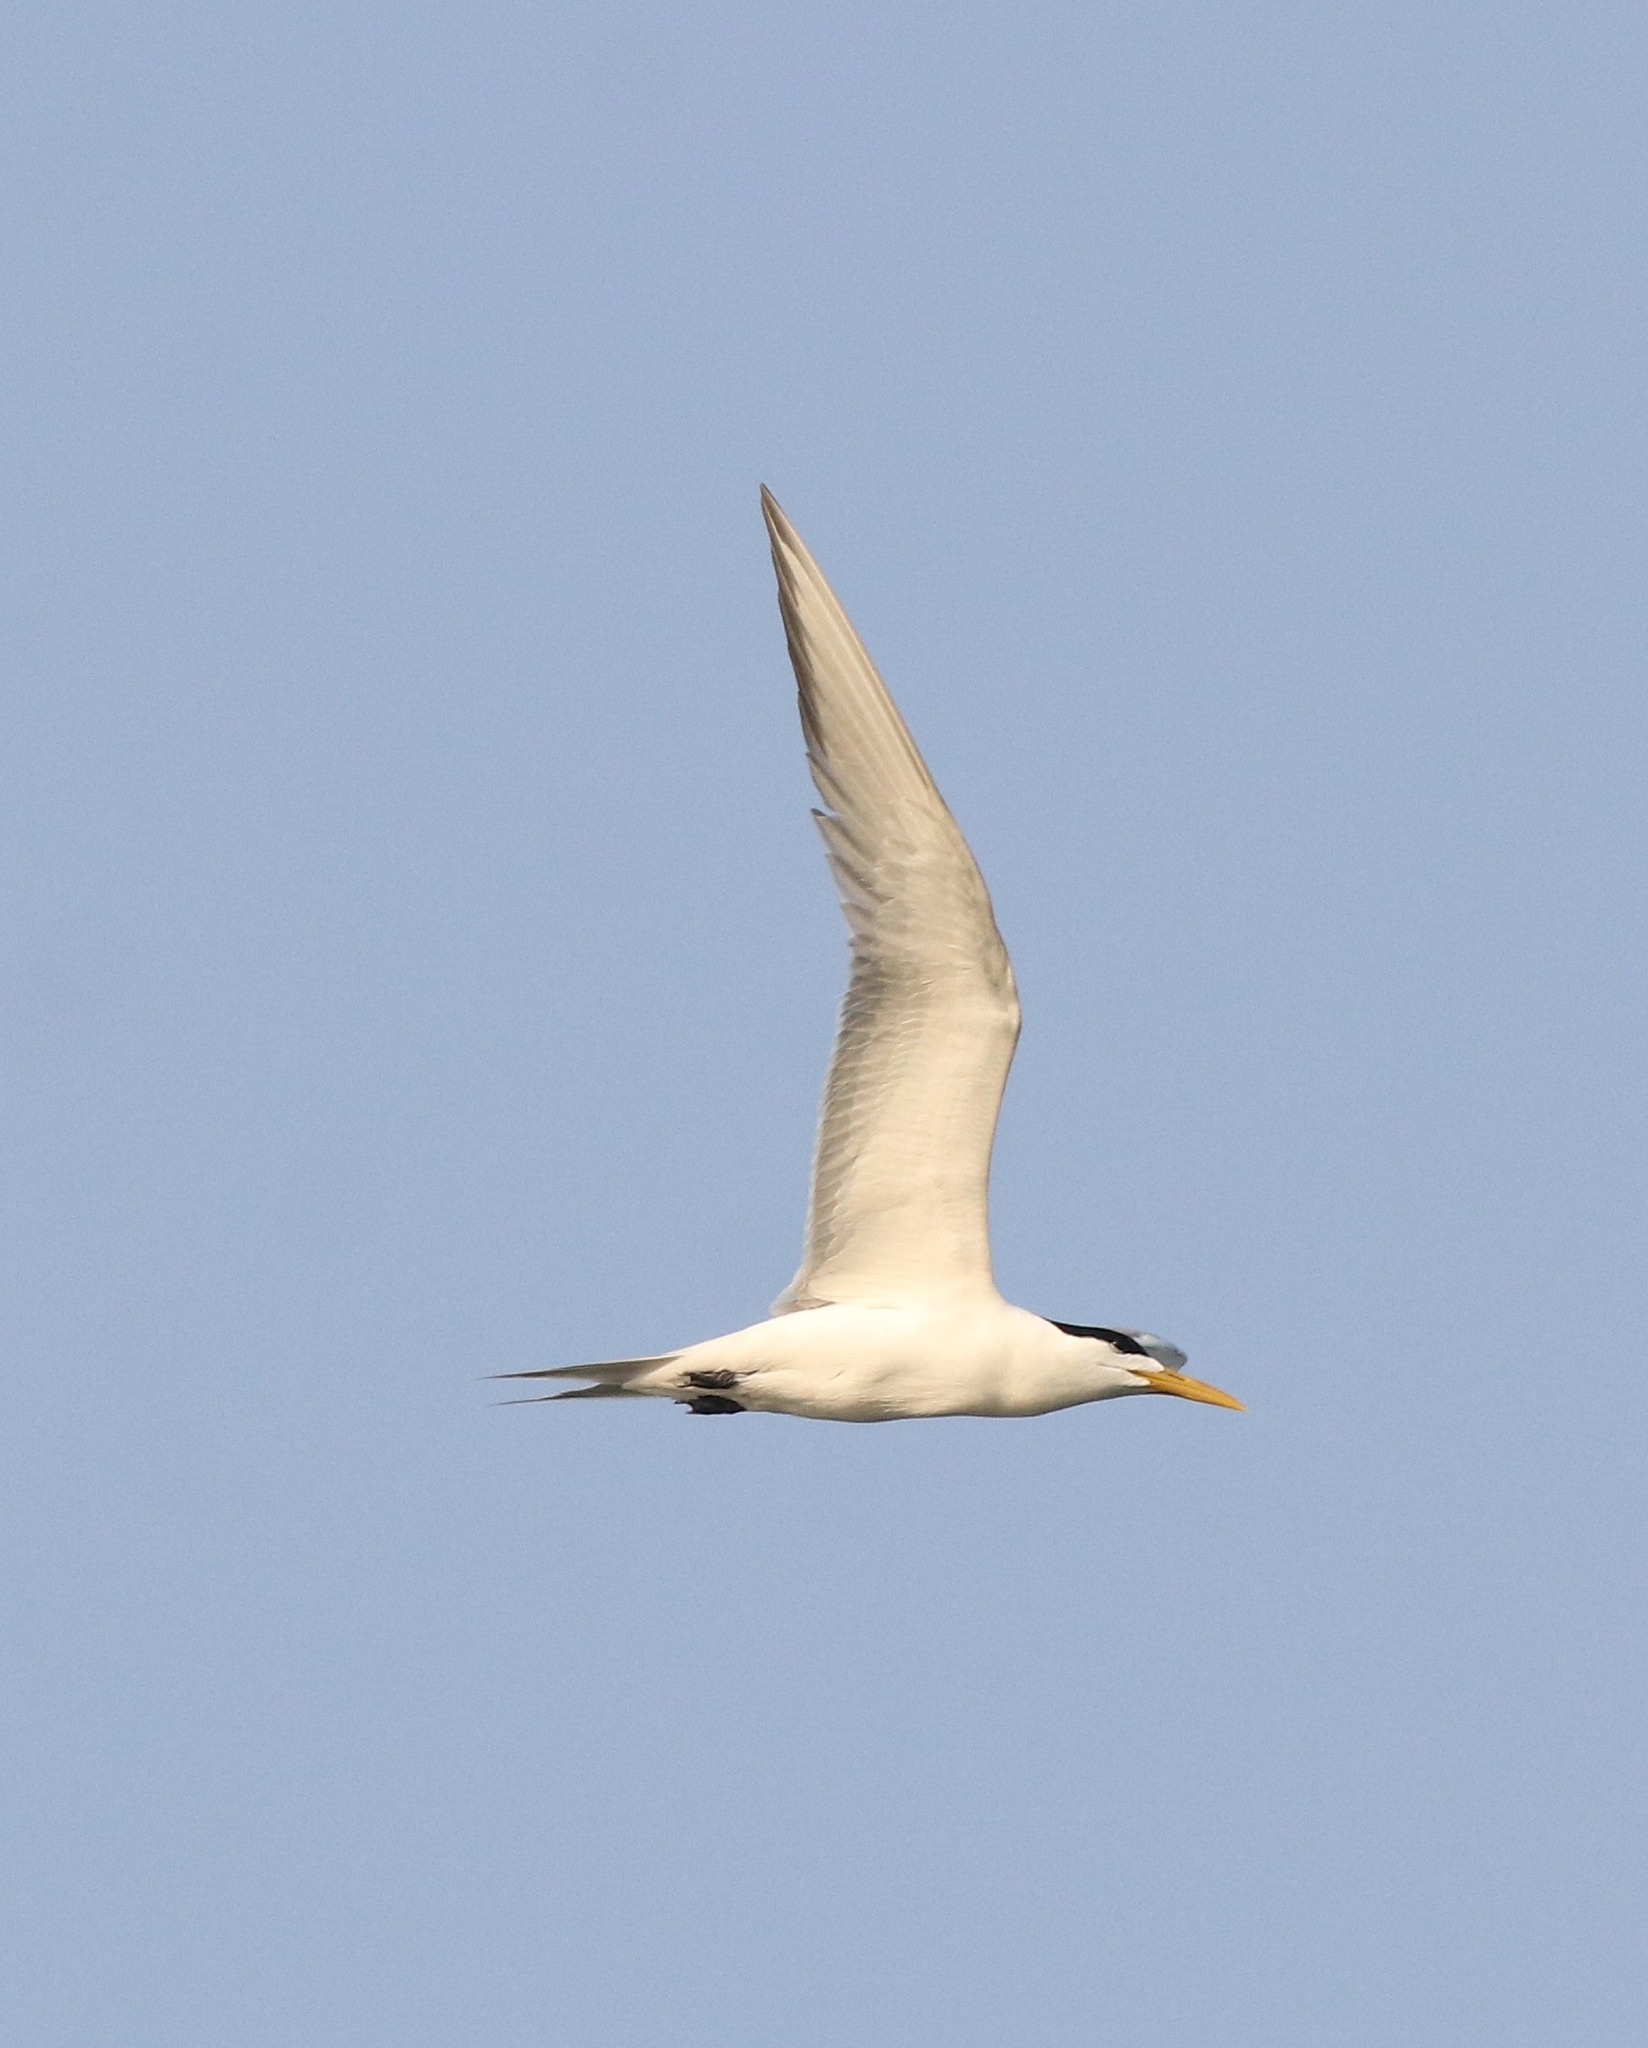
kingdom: Animalia
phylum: Chordata
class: Aves
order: Charadriiformes
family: Laridae
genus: Thalasseus
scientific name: Thalasseus bergii
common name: Greater crested tern
